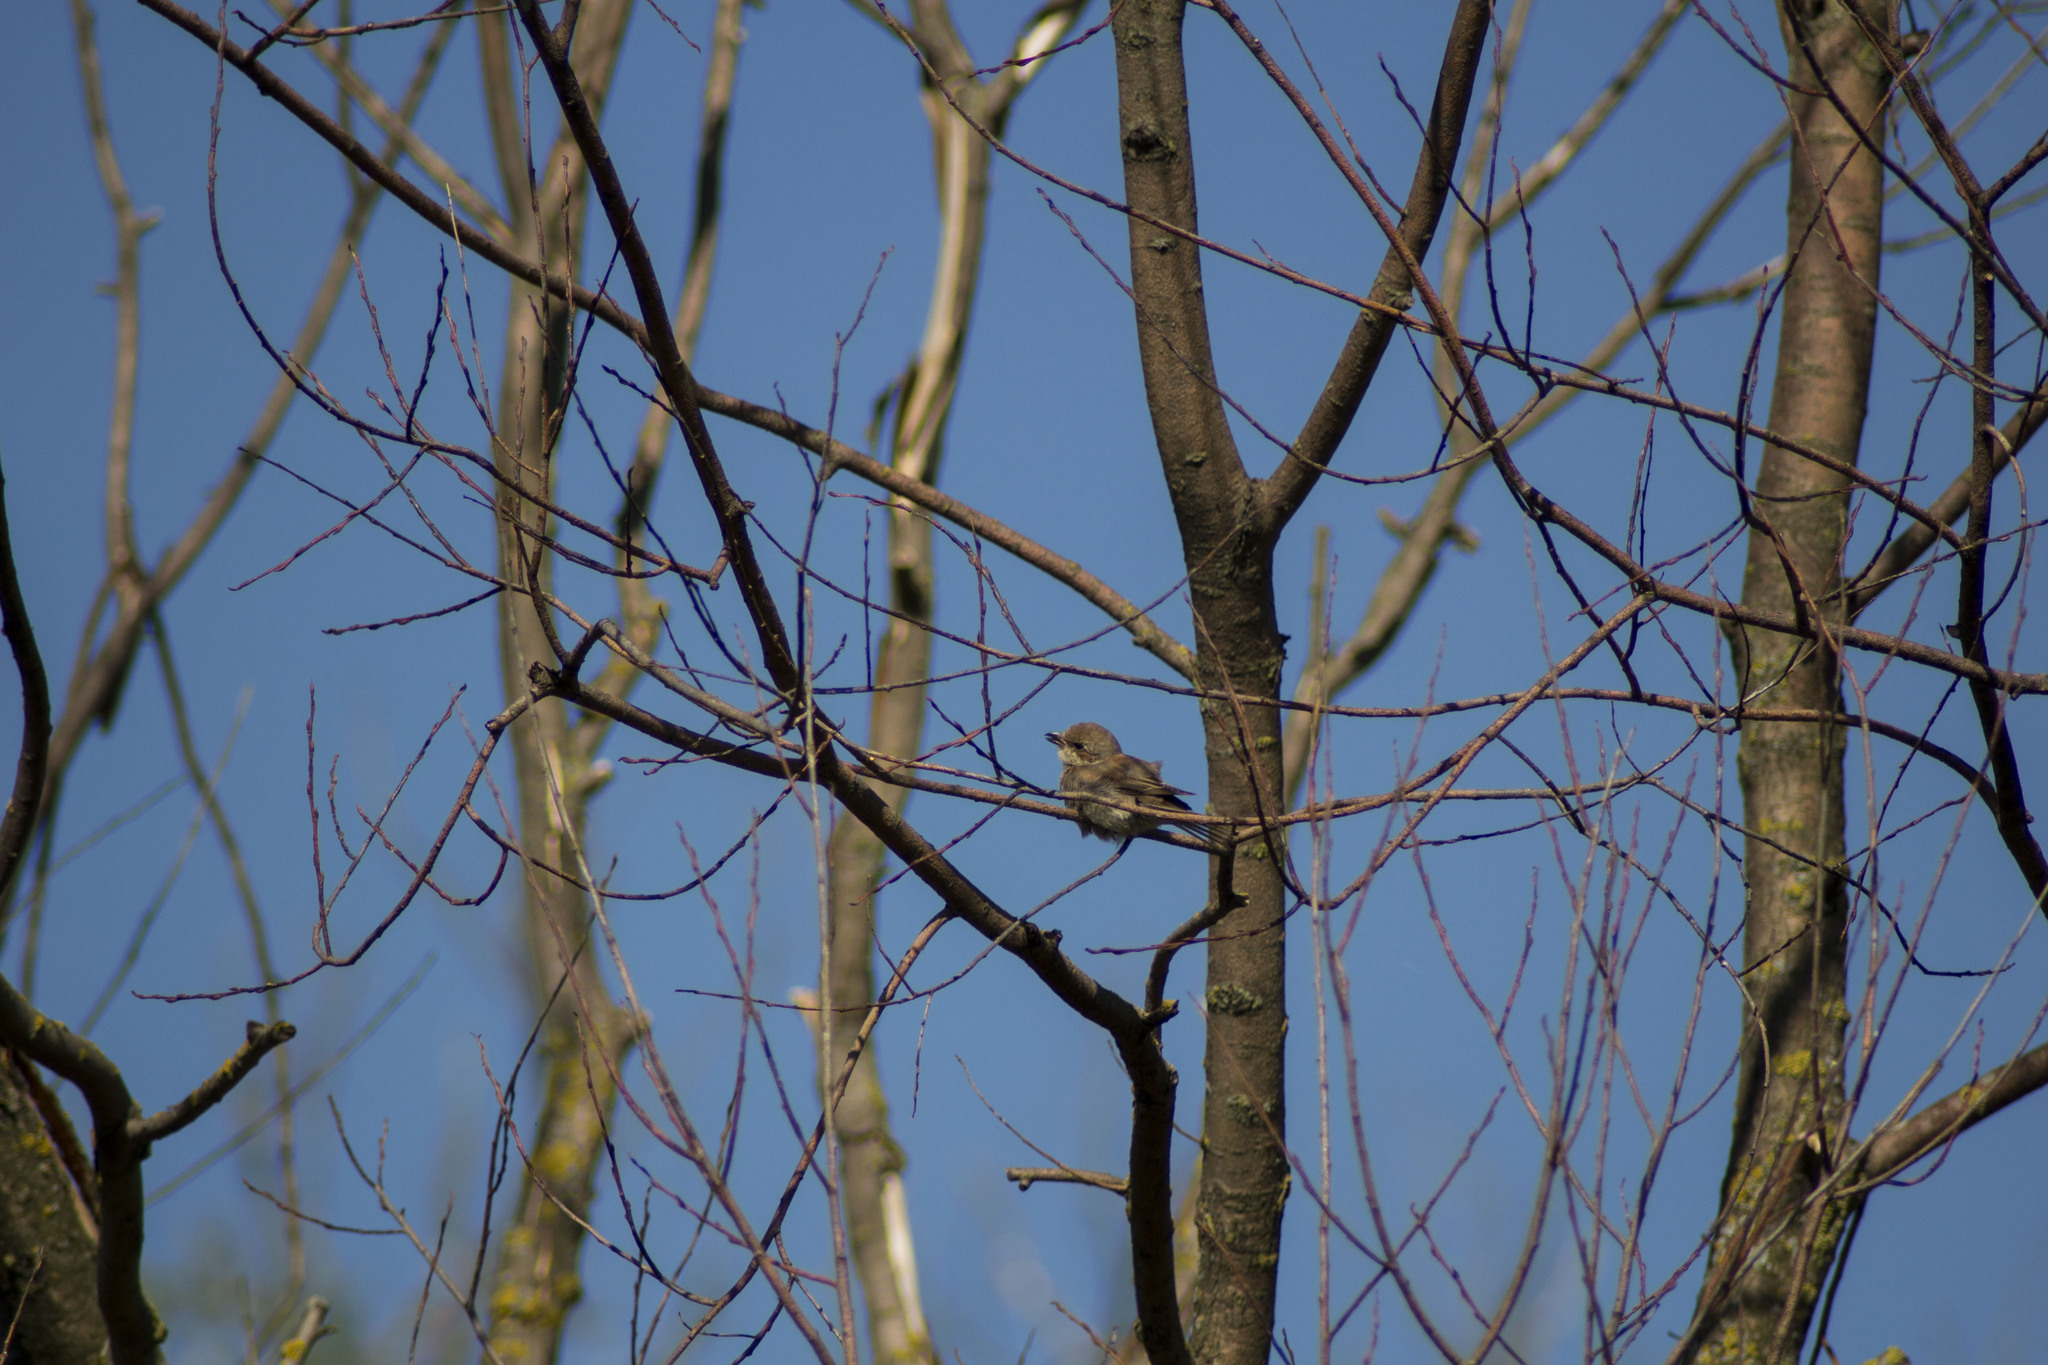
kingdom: Animalia
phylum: Chordata
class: Aves
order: Passeriformes
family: Laniidae
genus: Lanius
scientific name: Lanius collurio
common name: Red-backed shrike
